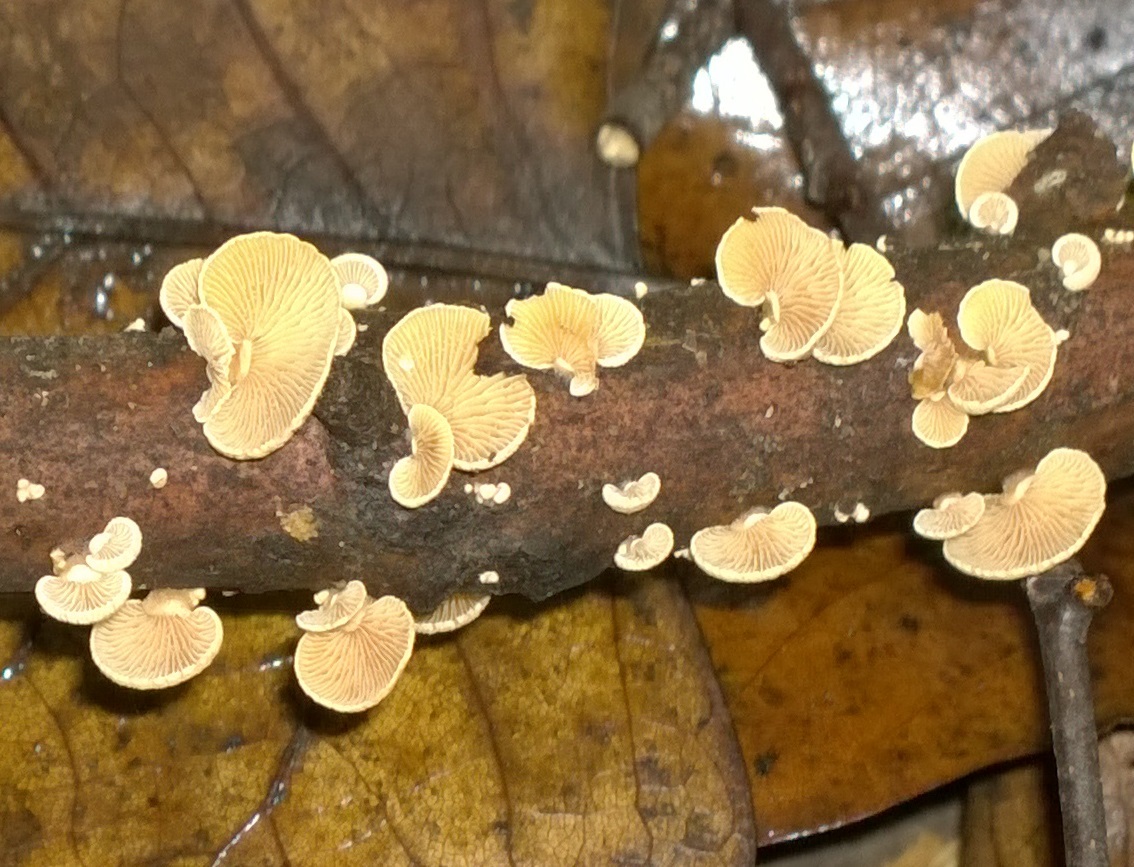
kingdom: Fungi
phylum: Basidiomycota
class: Agaricomycetes
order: Agaricales
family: Mycenaceae
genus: Panellus
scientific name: Panellus stipticus
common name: Bitter oysterling
